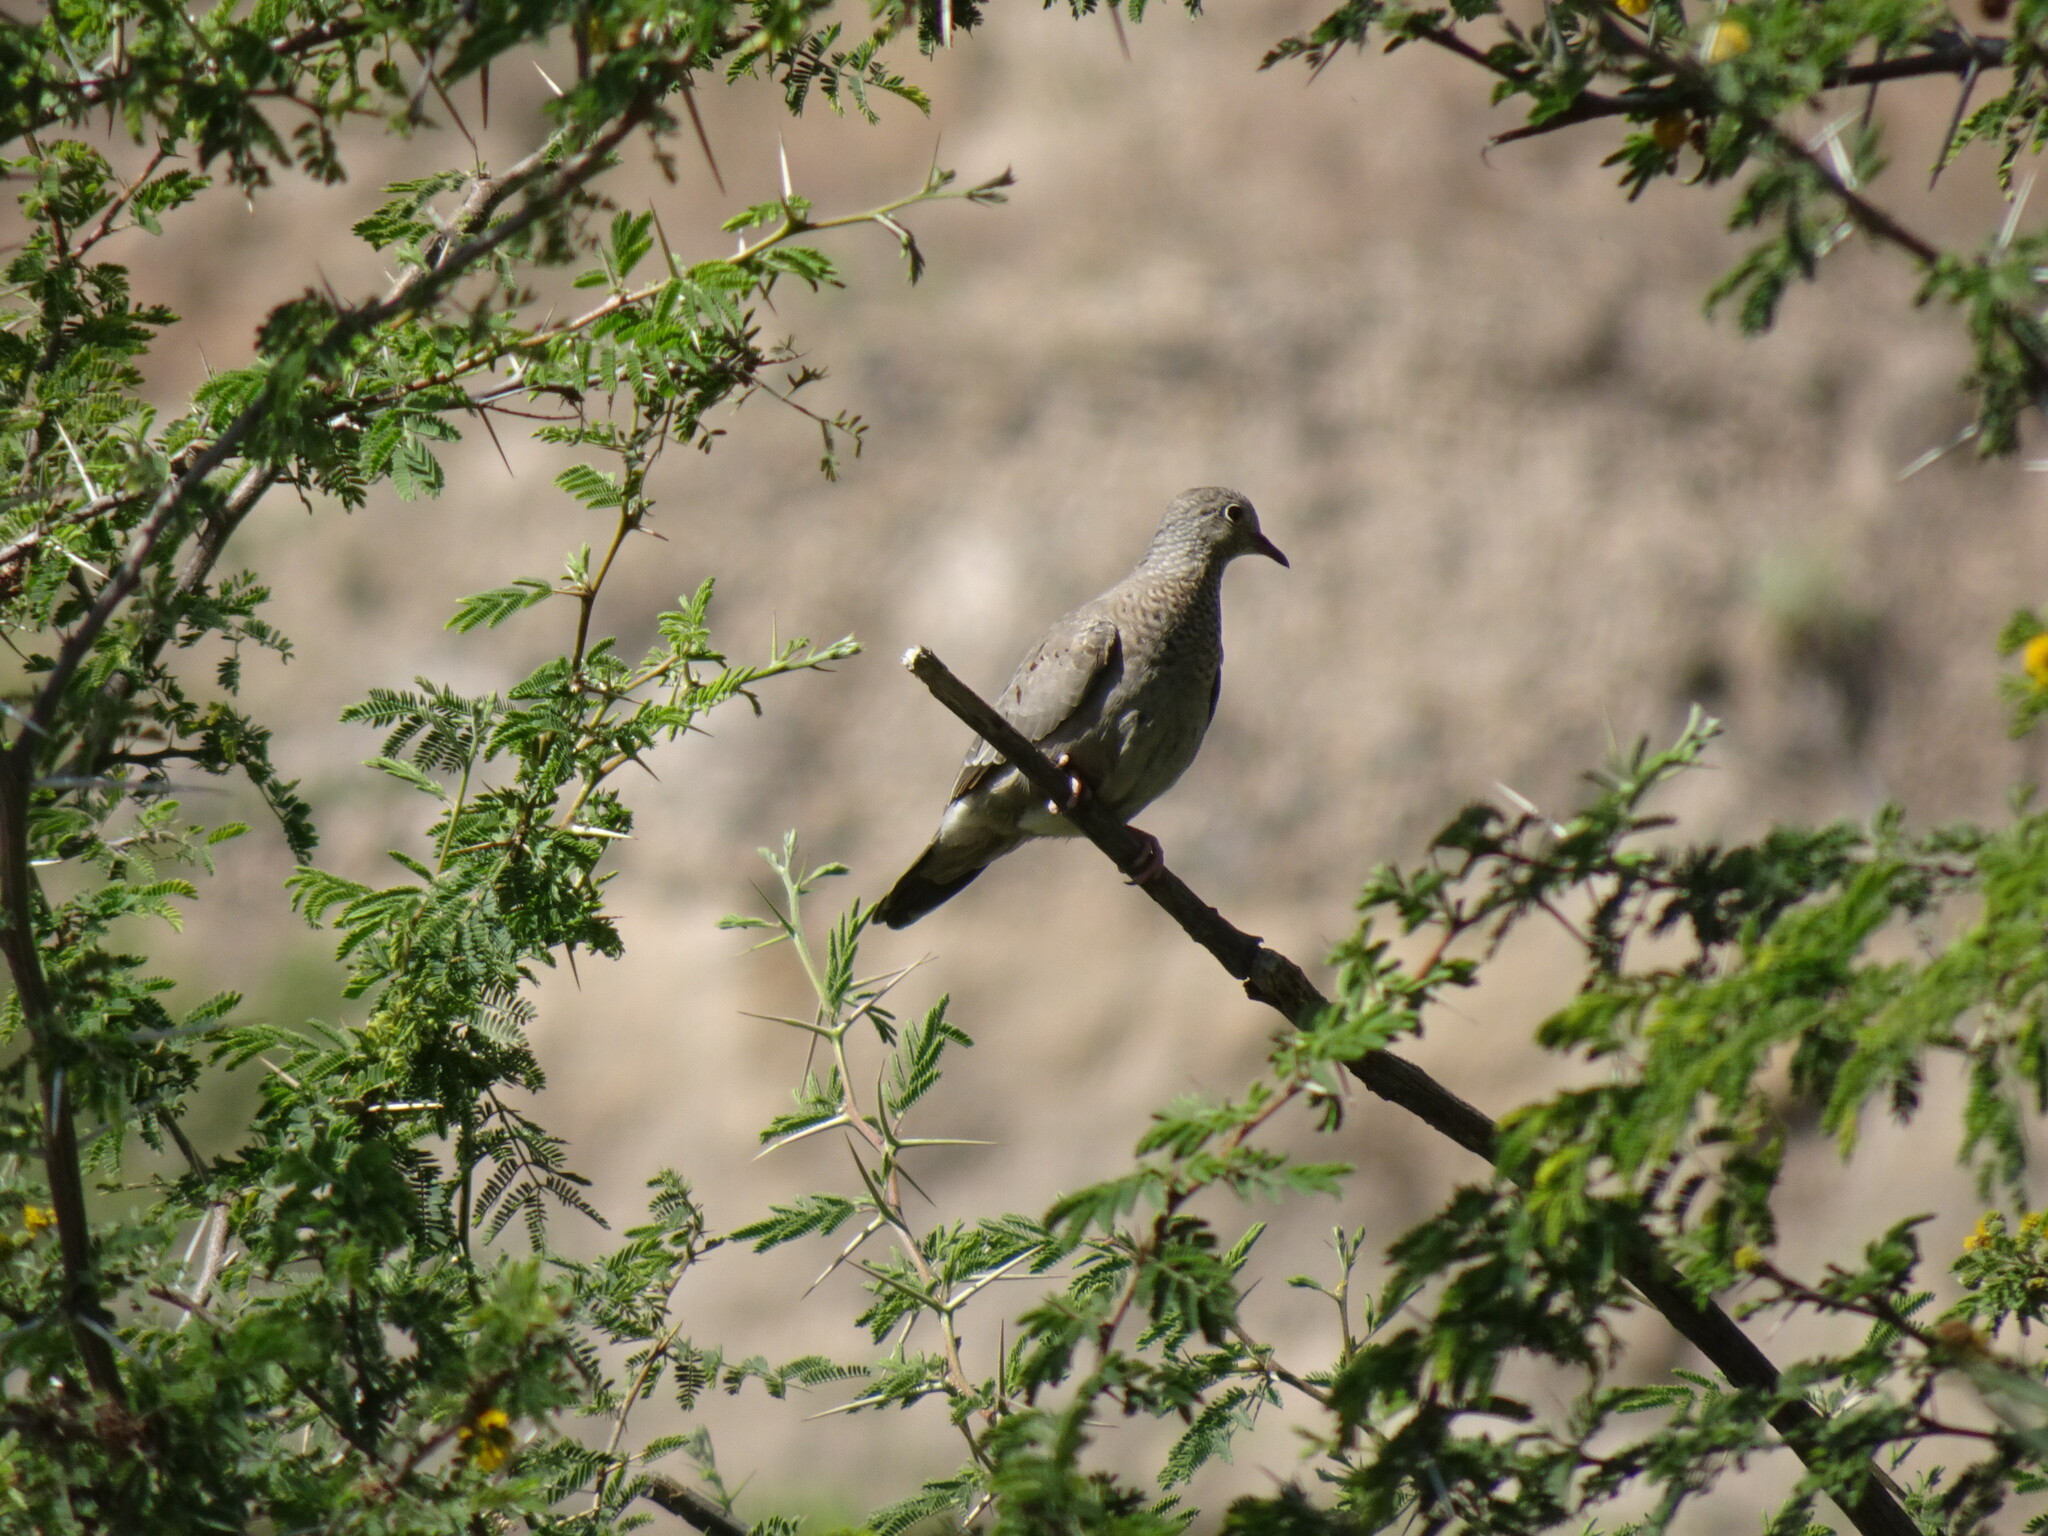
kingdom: Animalia
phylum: Chordata
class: Aves
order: Columbiformes
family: Columbidae
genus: Columbina
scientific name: Columbina passerina
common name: Common ground-dove
